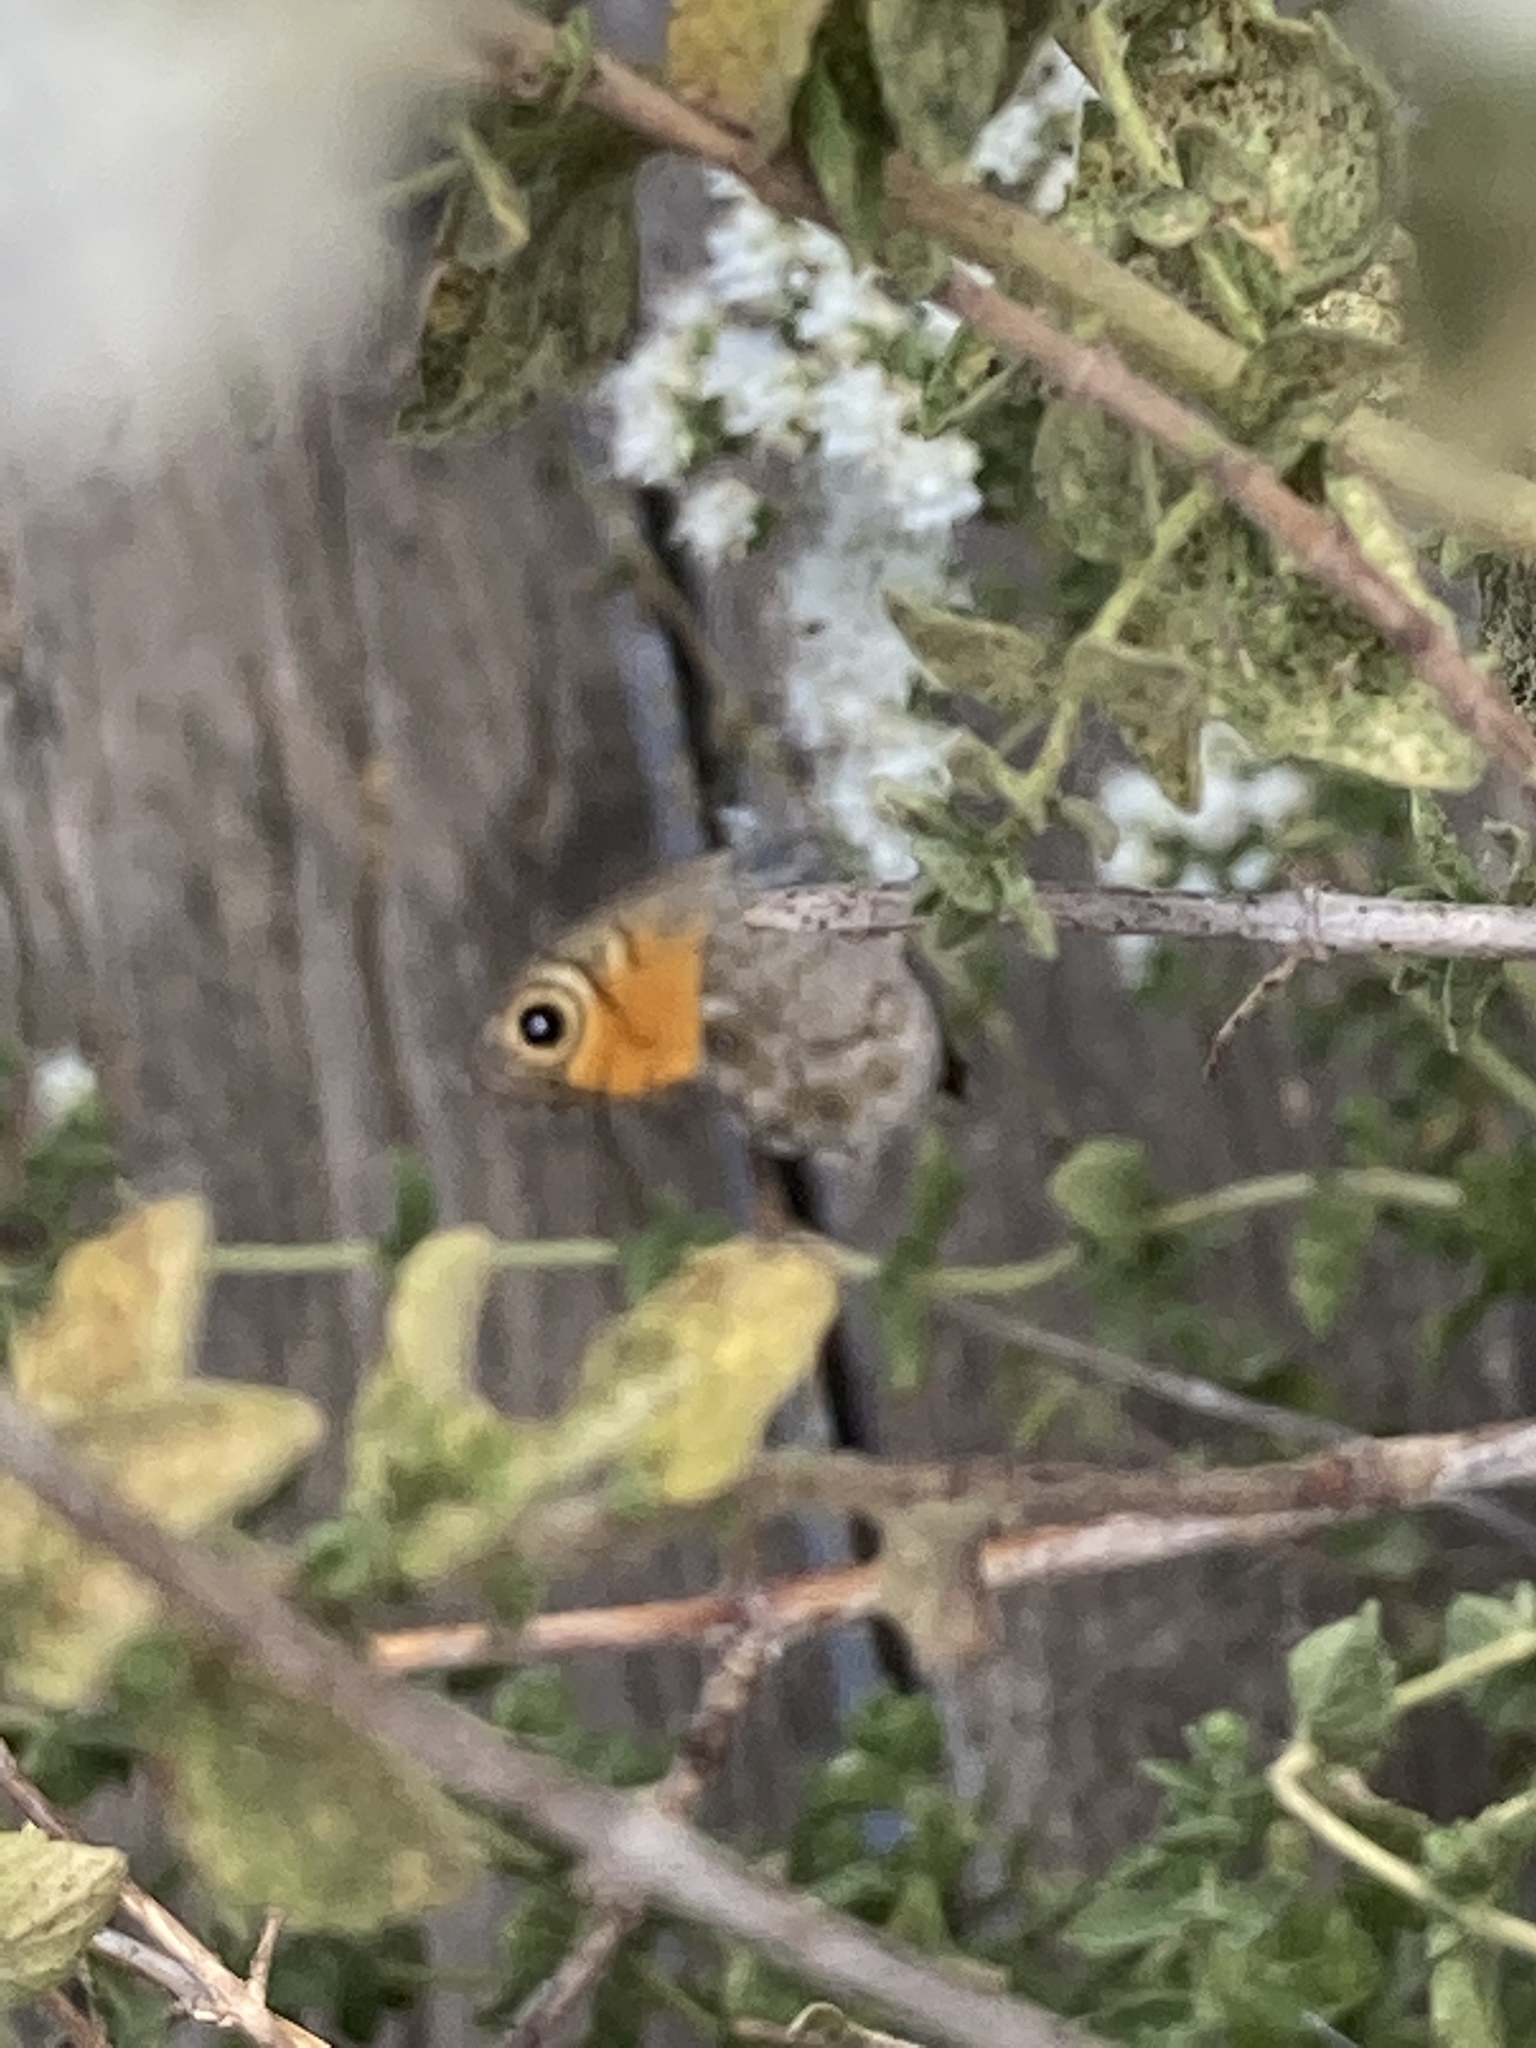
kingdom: Animalia
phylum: Arthropoda
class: Insecta
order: Lepidoptera
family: Nymphalidae
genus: Pararge
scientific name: Pararge Lasiommata maera
